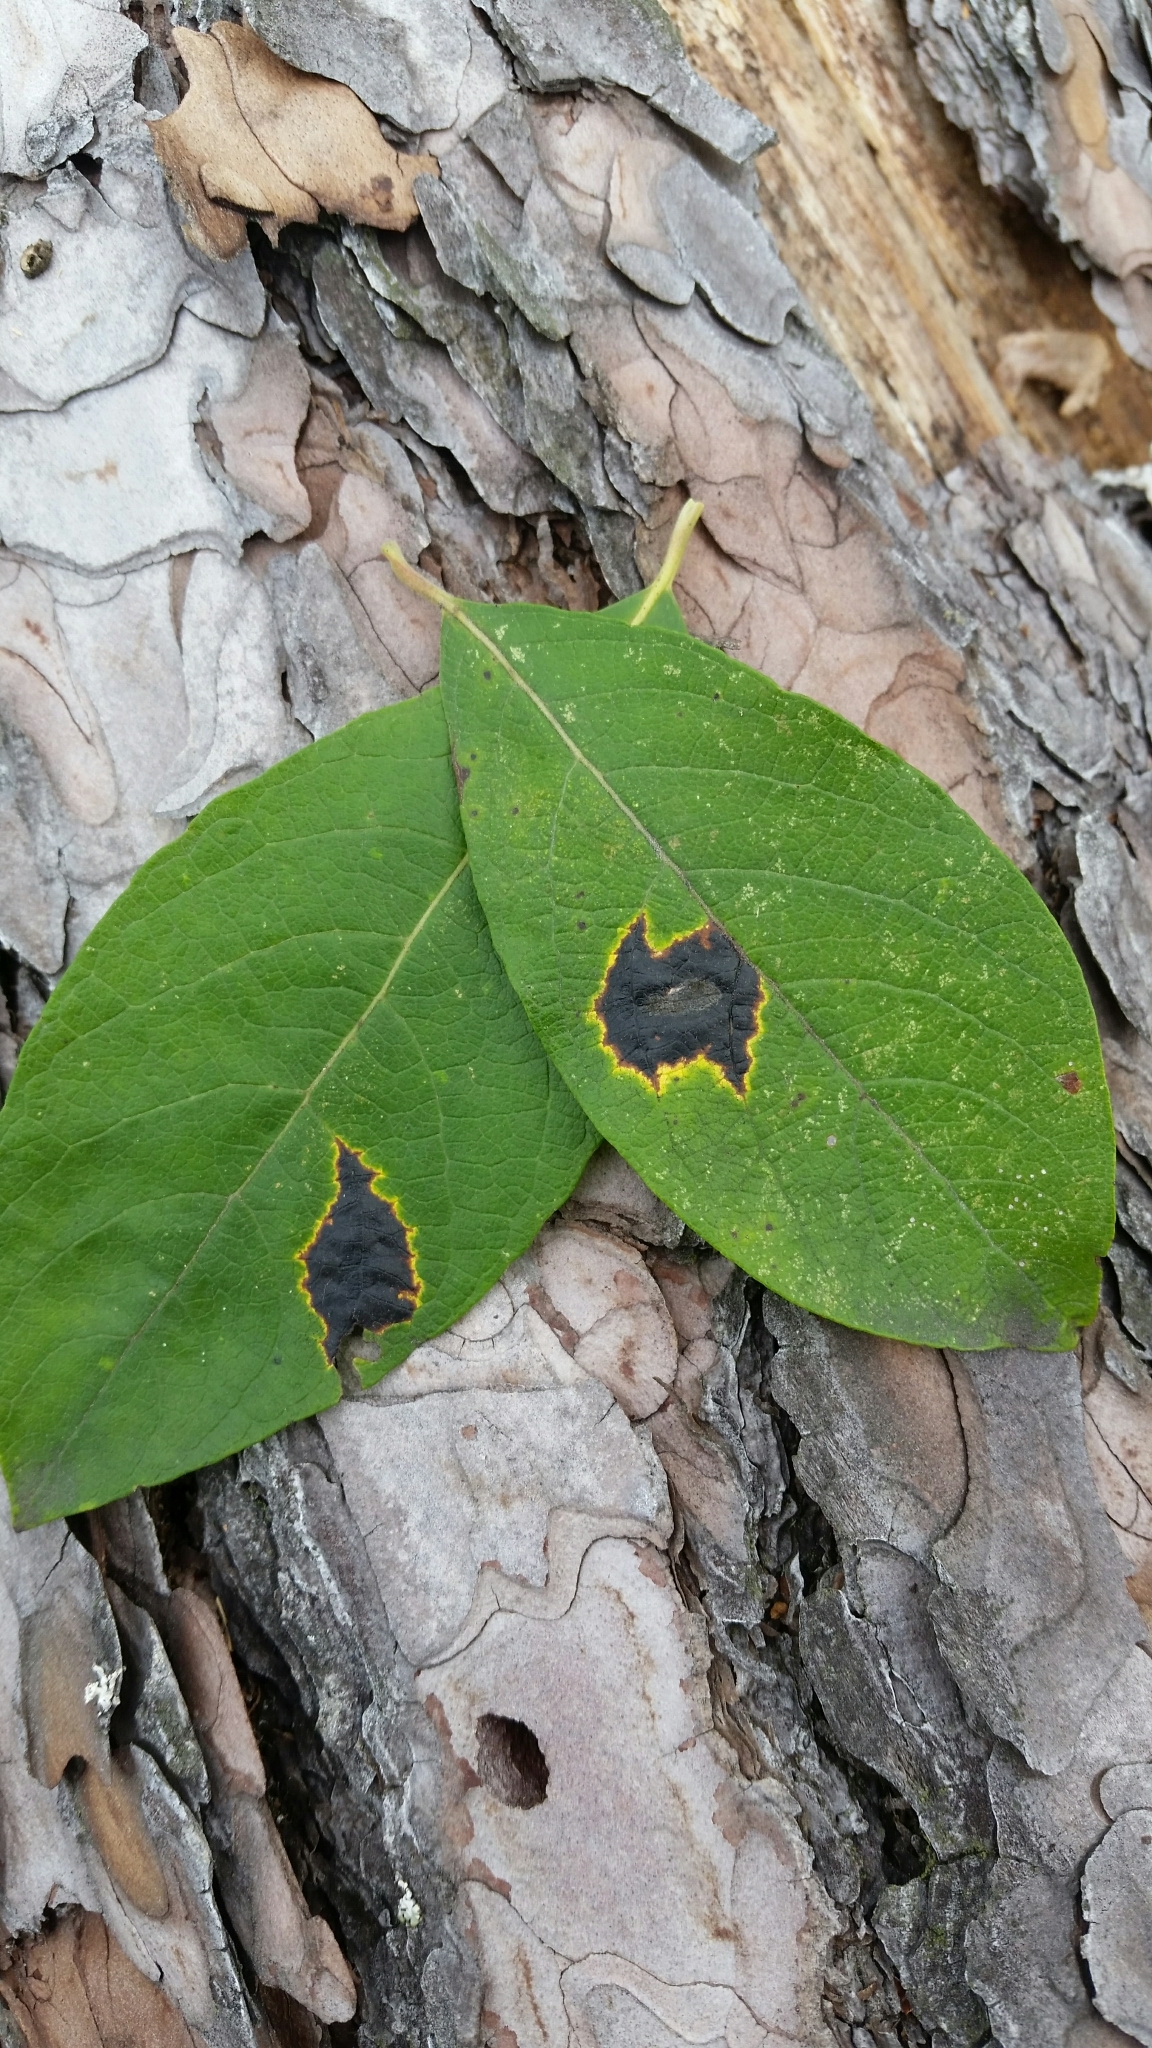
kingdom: Fungi
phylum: Ascomycota
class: Leotiomycetes
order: Rhytismatales
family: Rhytismataceae
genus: Rhytisma
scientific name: Rhytisma salicinum
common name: Willow tarspot
